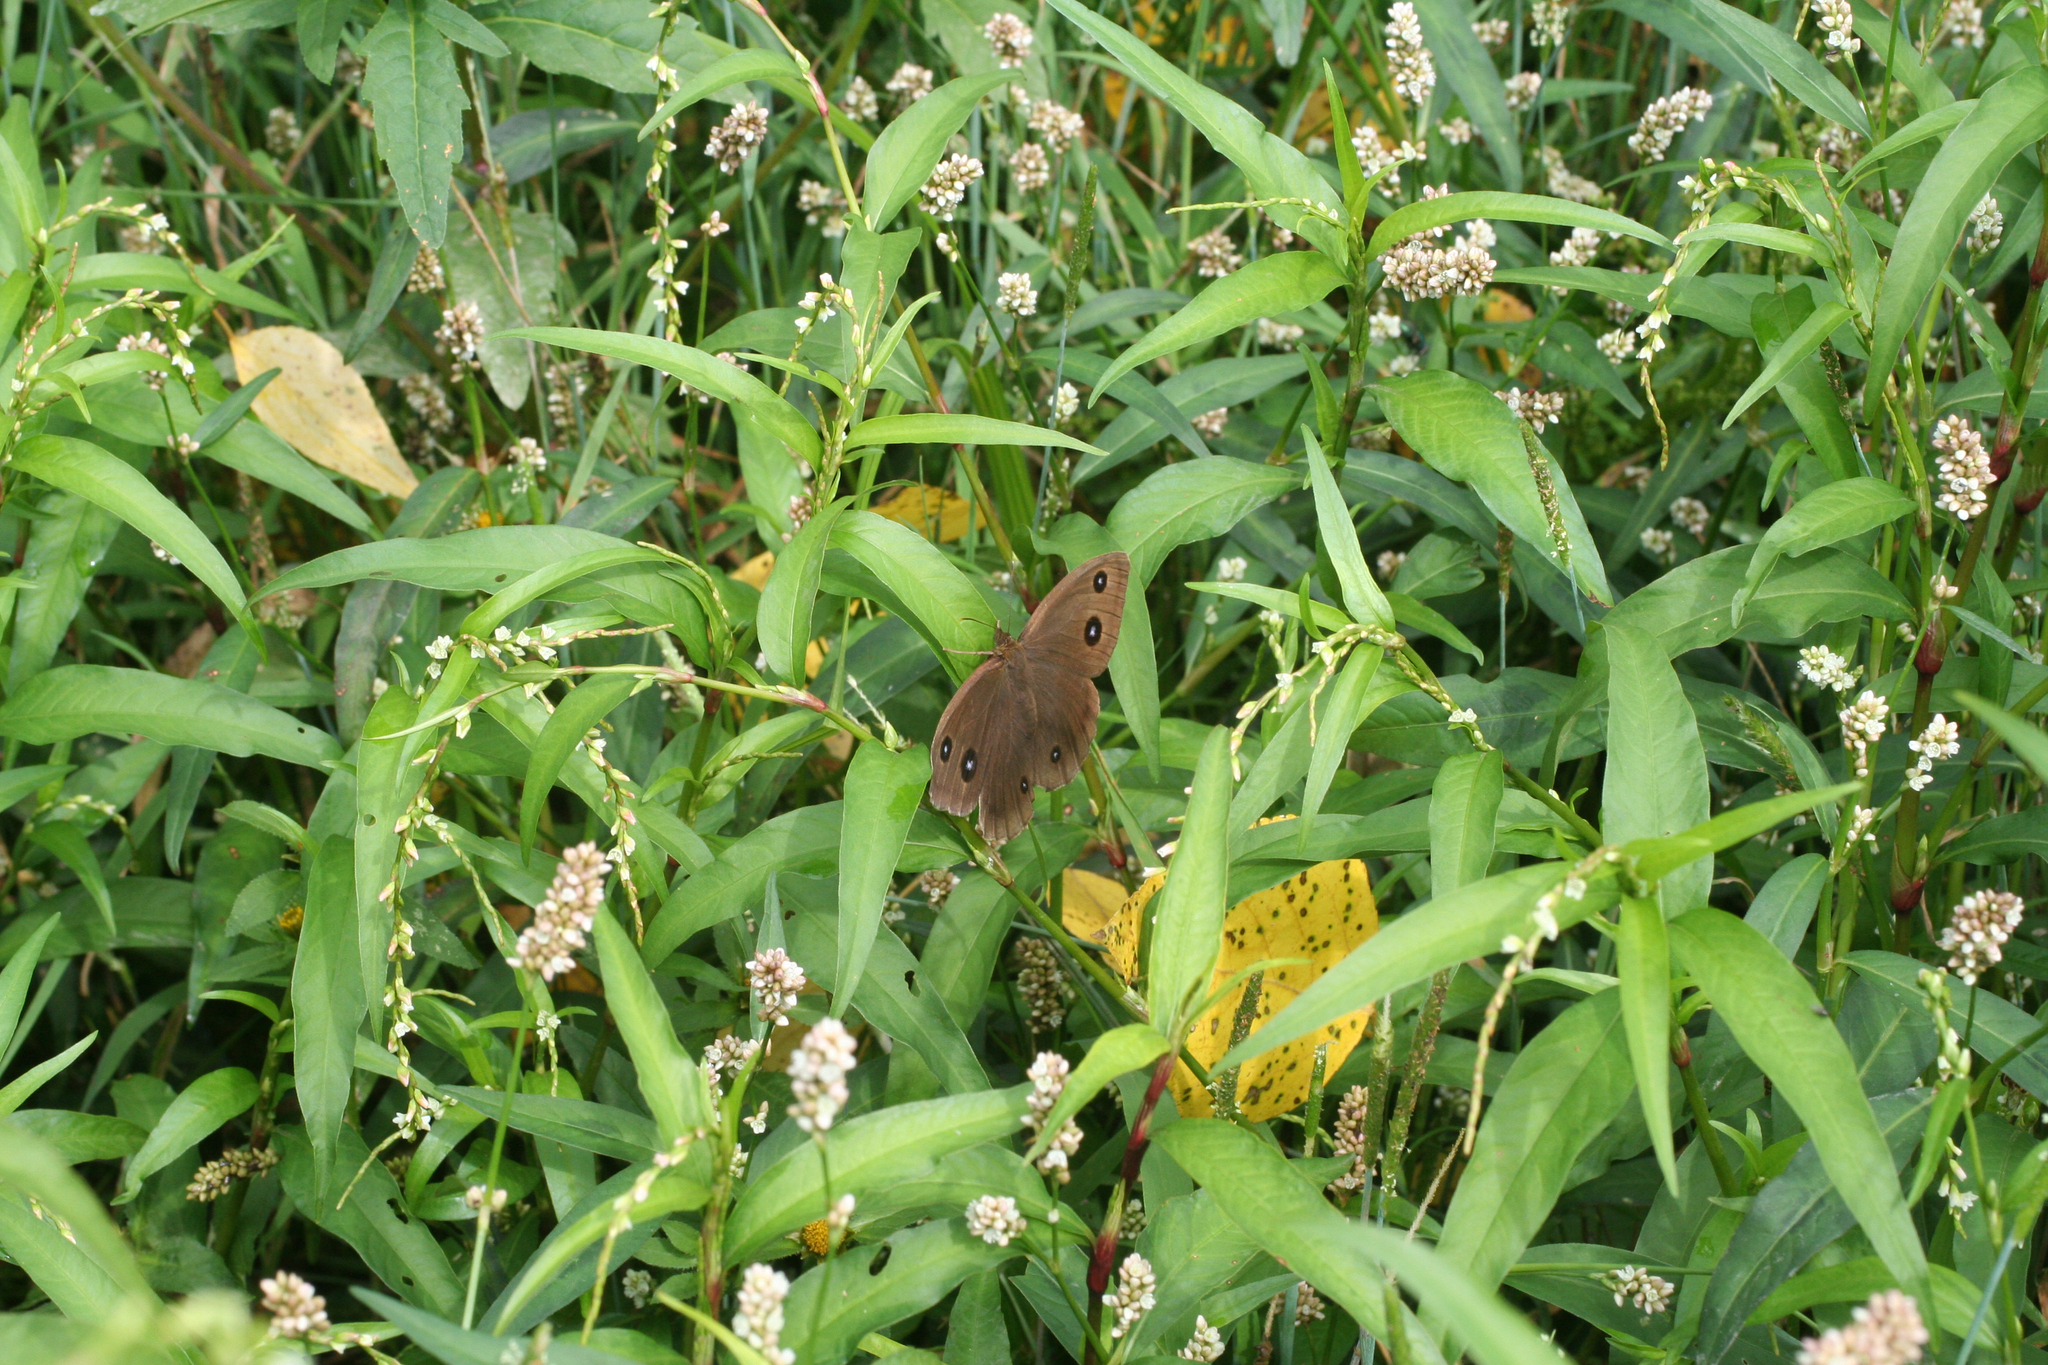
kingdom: Plantae
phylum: Tracheophyta
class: Magnoliopsida
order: Caryophyllales
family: Polygonaceae
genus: Persicaria
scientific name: Persicaria hydropiper
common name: Water-pepper
